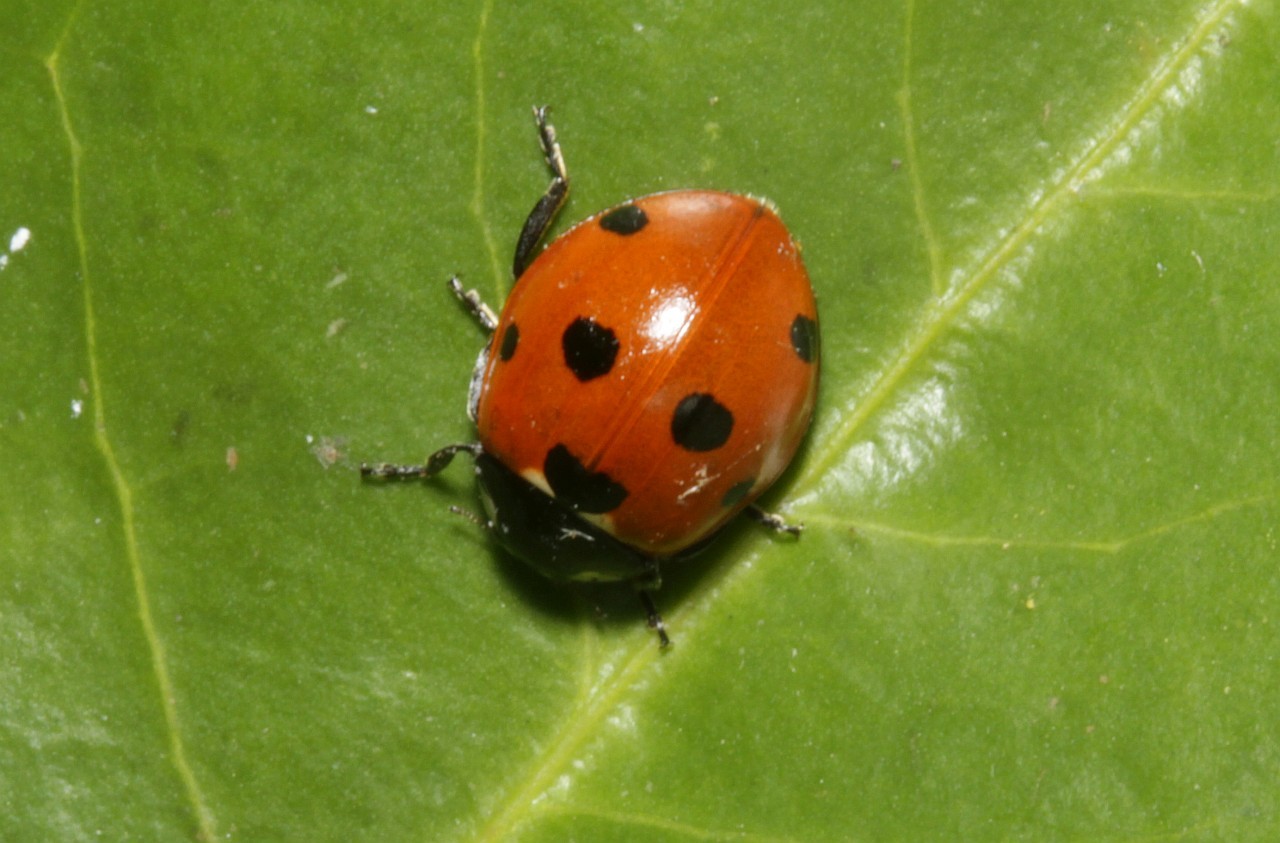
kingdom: Animalia
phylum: Arthropoda
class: Insecta
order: Coleoptera
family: Coccinellidae
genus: Coccinella
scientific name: Coccinella septempunctata
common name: Sevenspotted lady beetle
